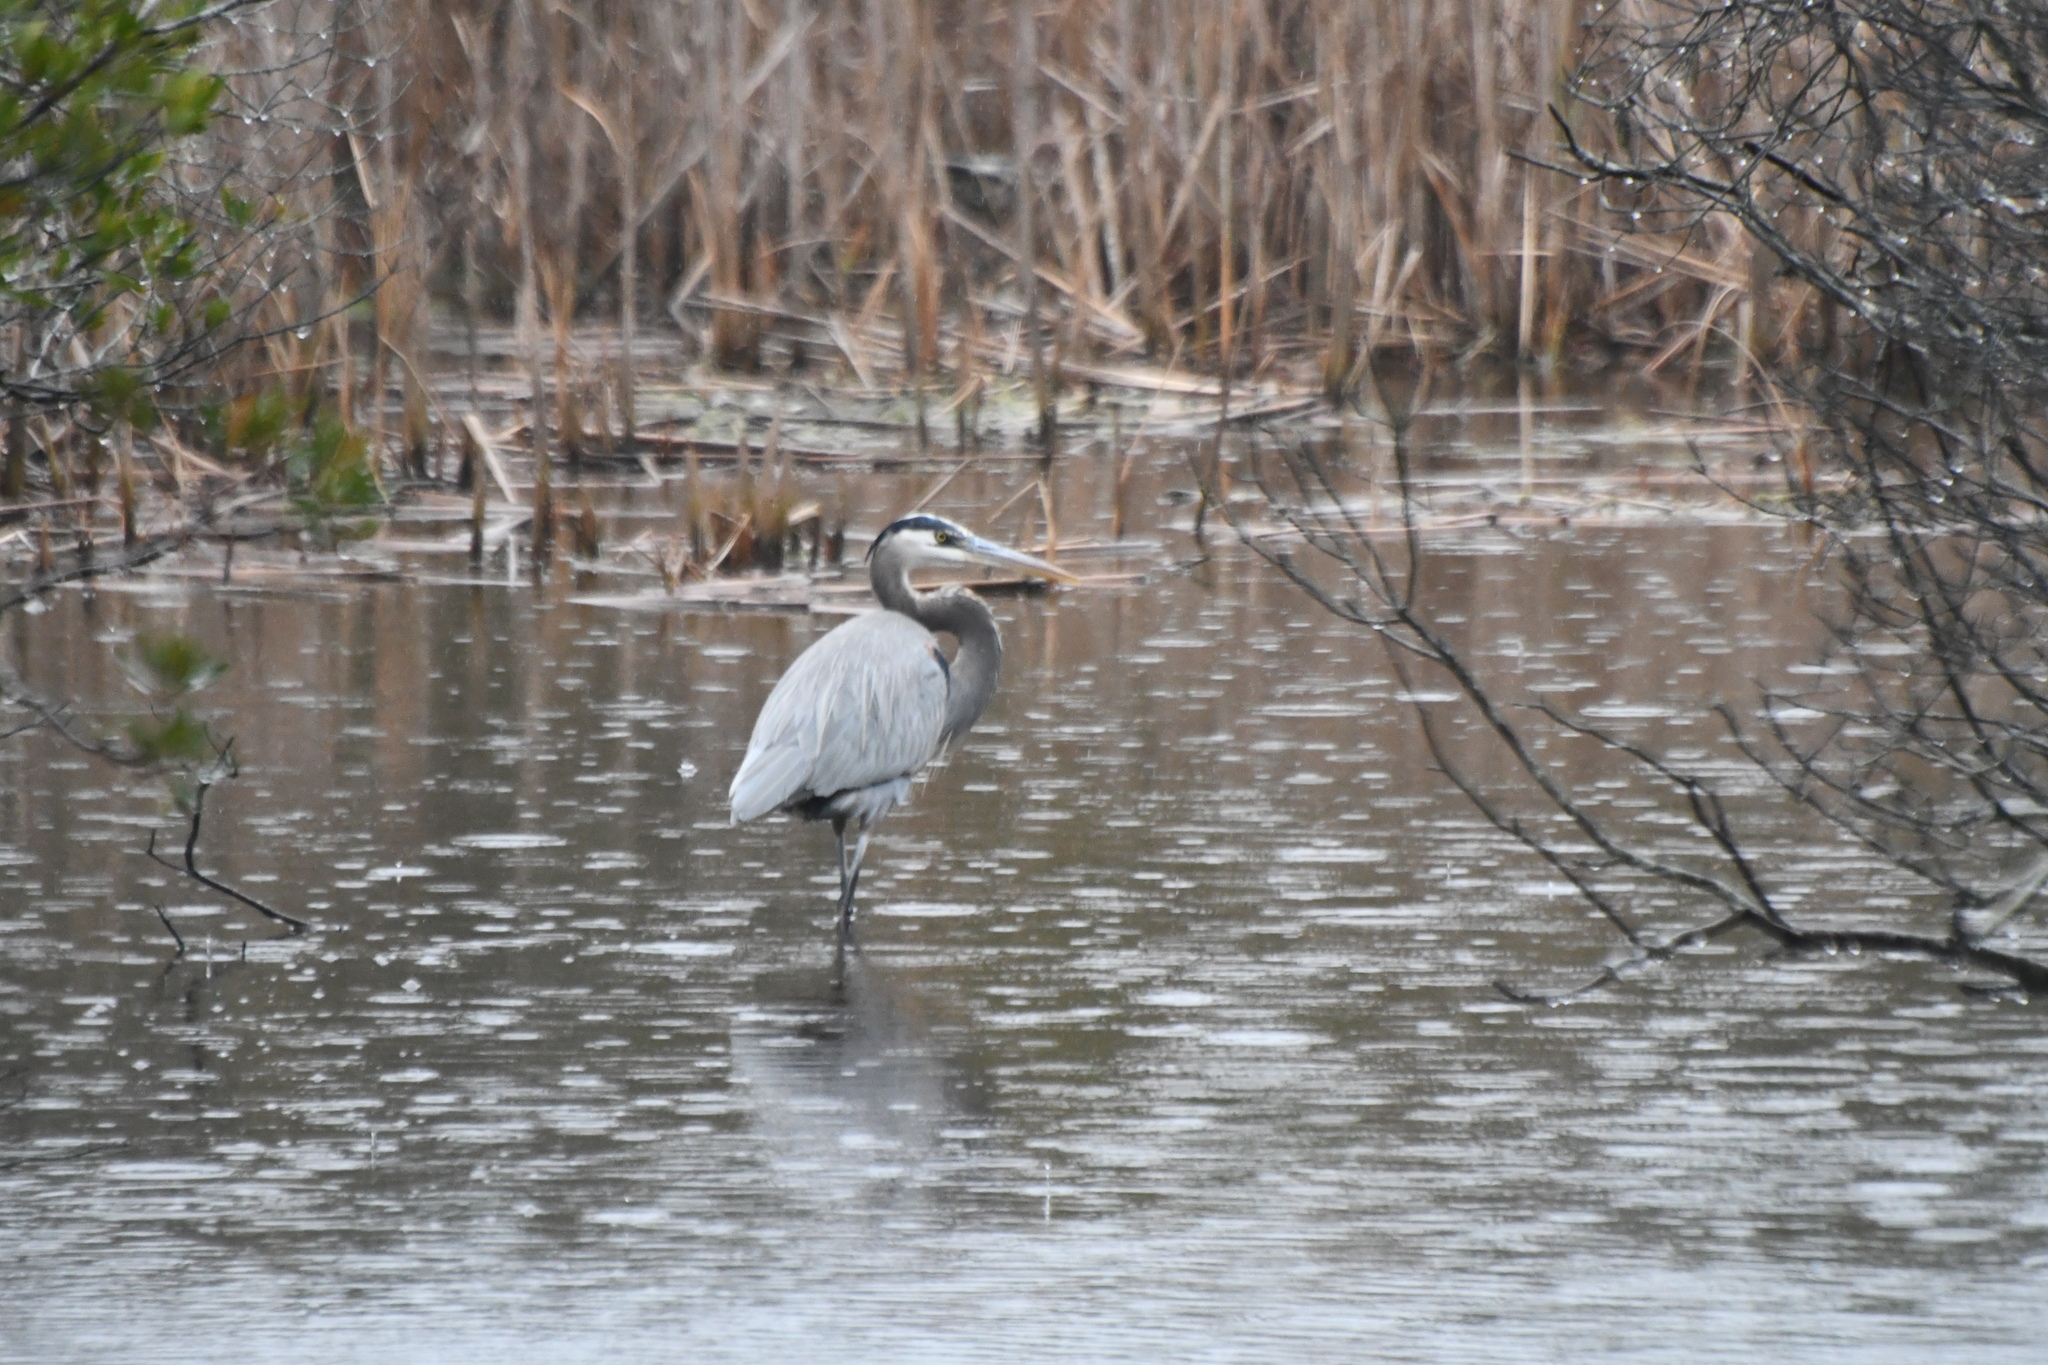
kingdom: Animalia
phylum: Chordata
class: Aves
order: Pelecaniformes
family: Ardeidae
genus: Ardea
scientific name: Ardea herodias
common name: Great blue heron
